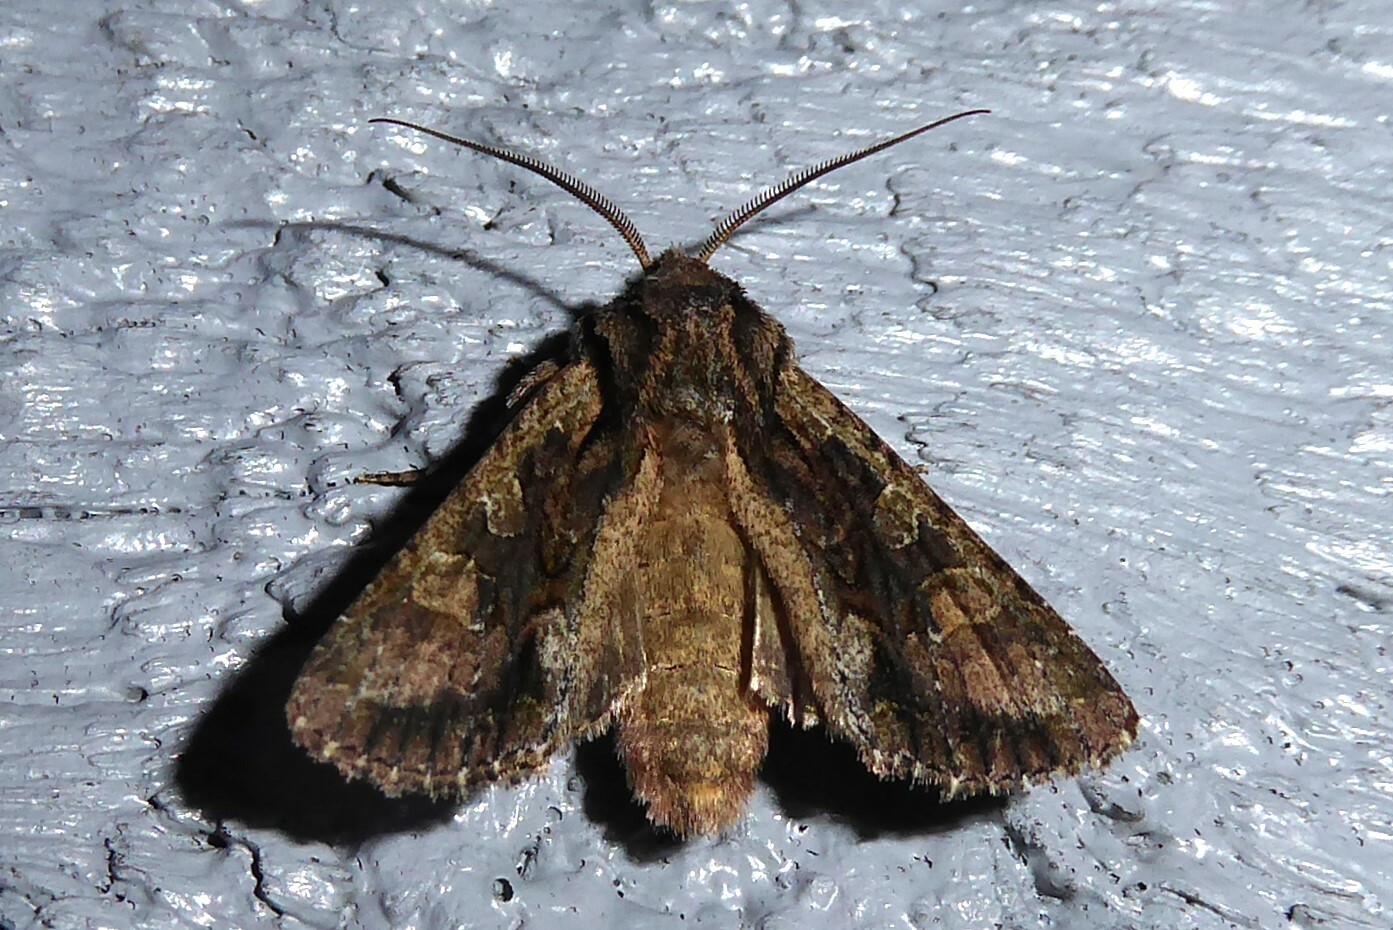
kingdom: Animalia
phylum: Arthropoda
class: Insecta
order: Lepidoptera
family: Noctuidae
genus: Ichneutica
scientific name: Ichneutica mutans
